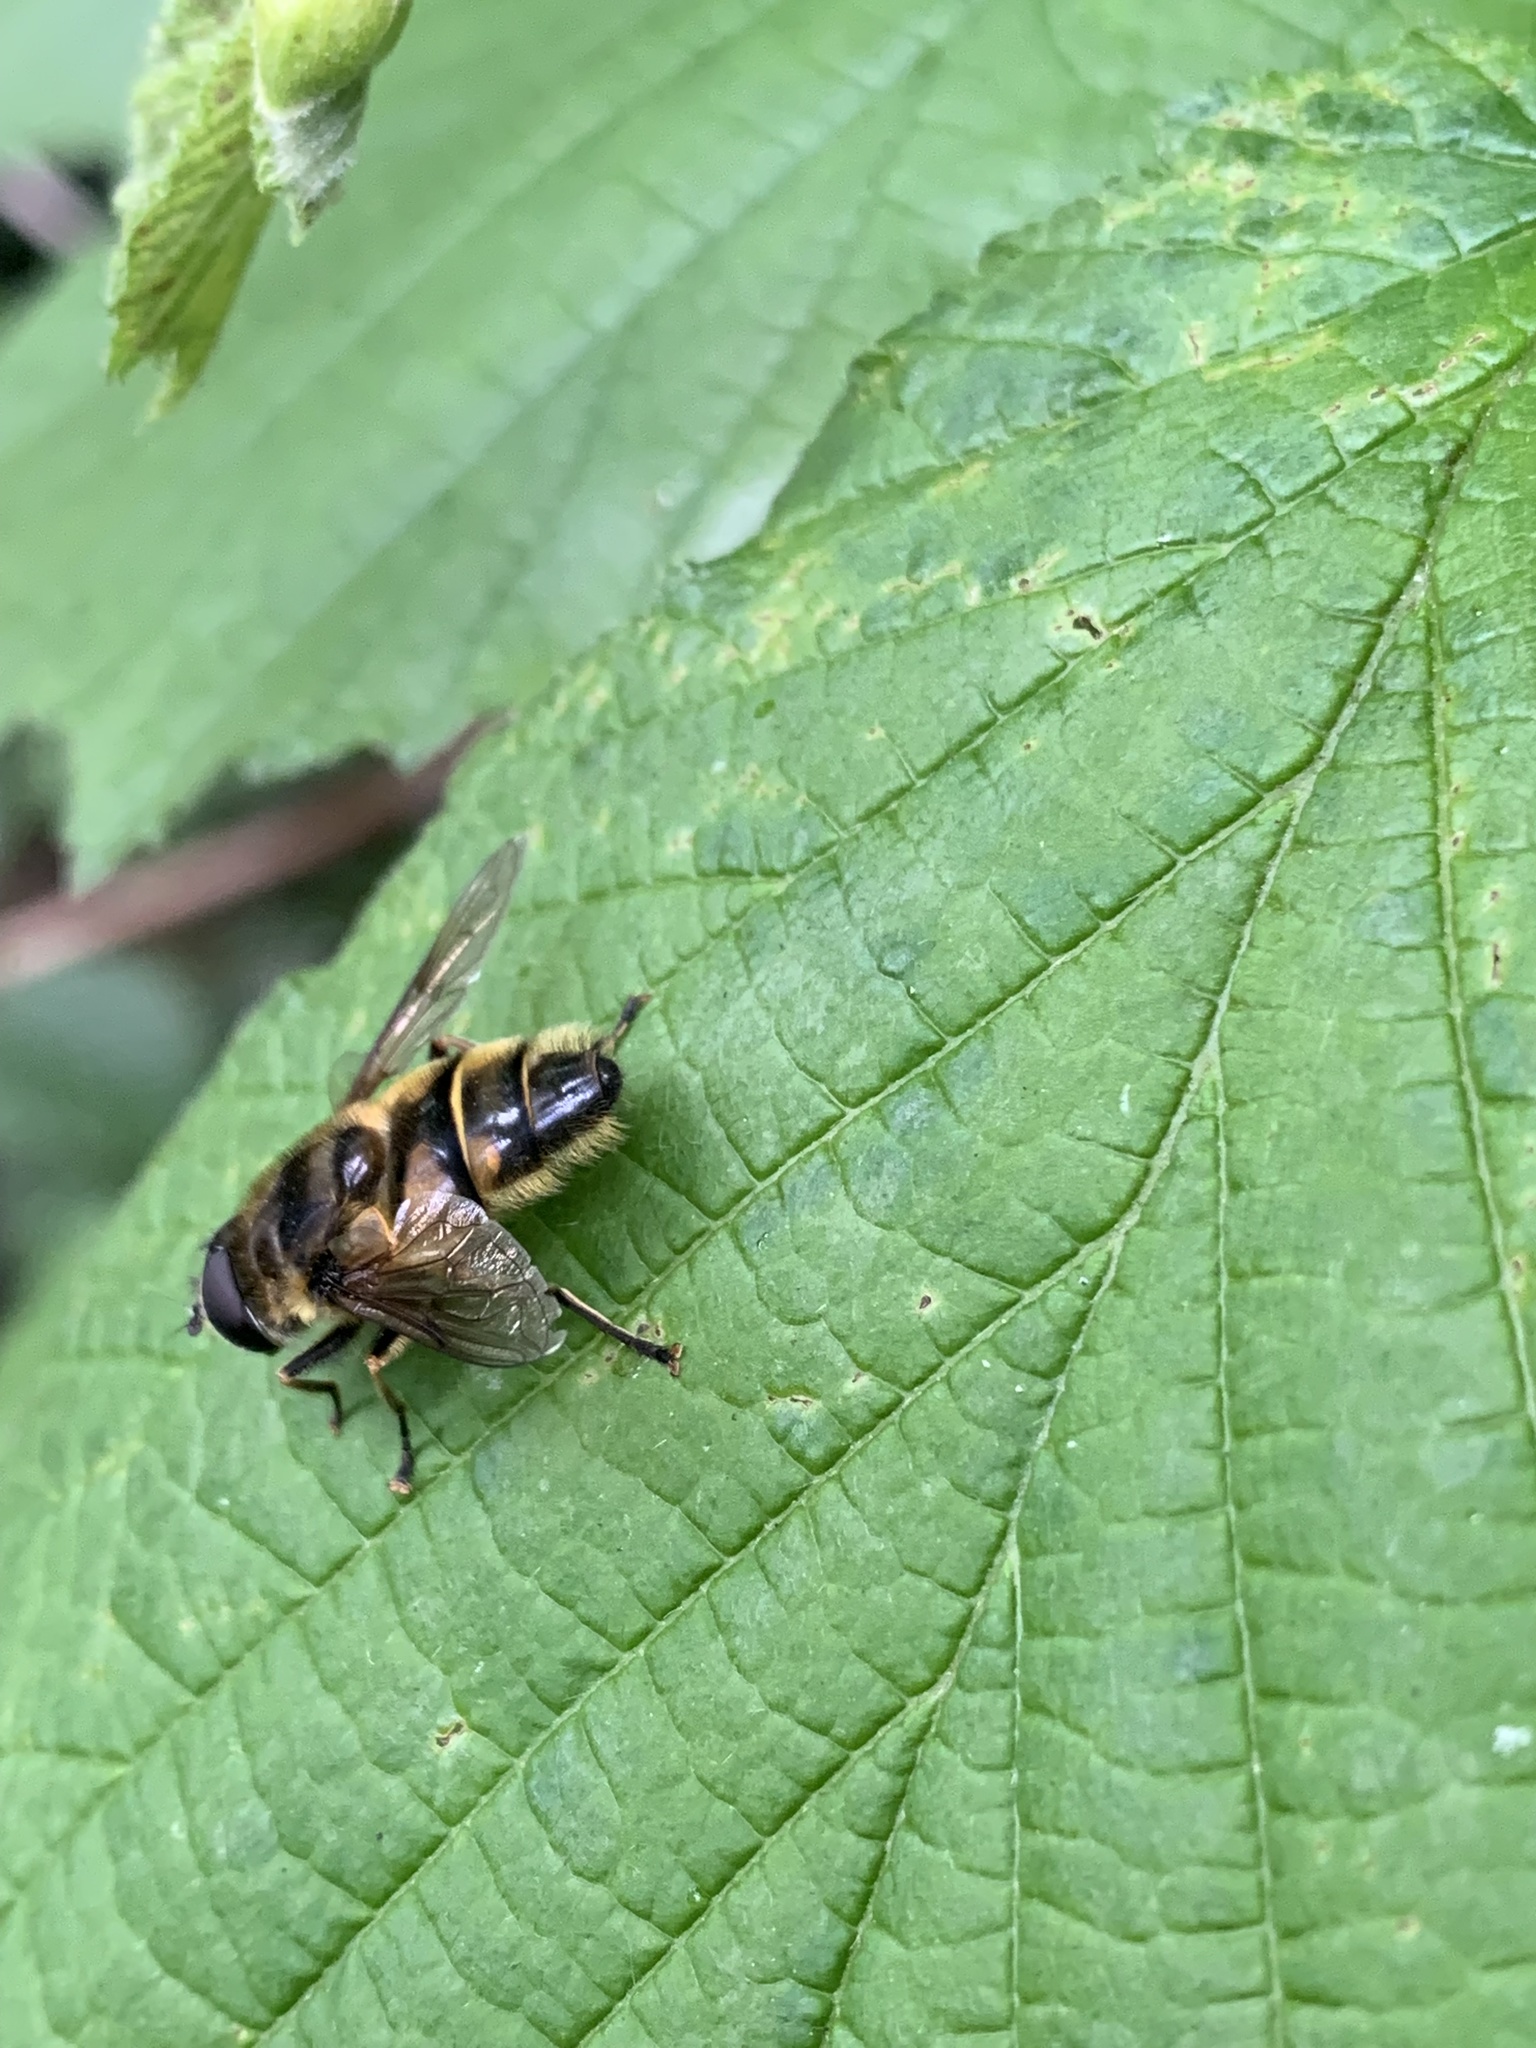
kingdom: Animalia
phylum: Arthropoda
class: Insecta
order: Diptera
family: Syrphidae
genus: Myathropa
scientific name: Myathropa florea
